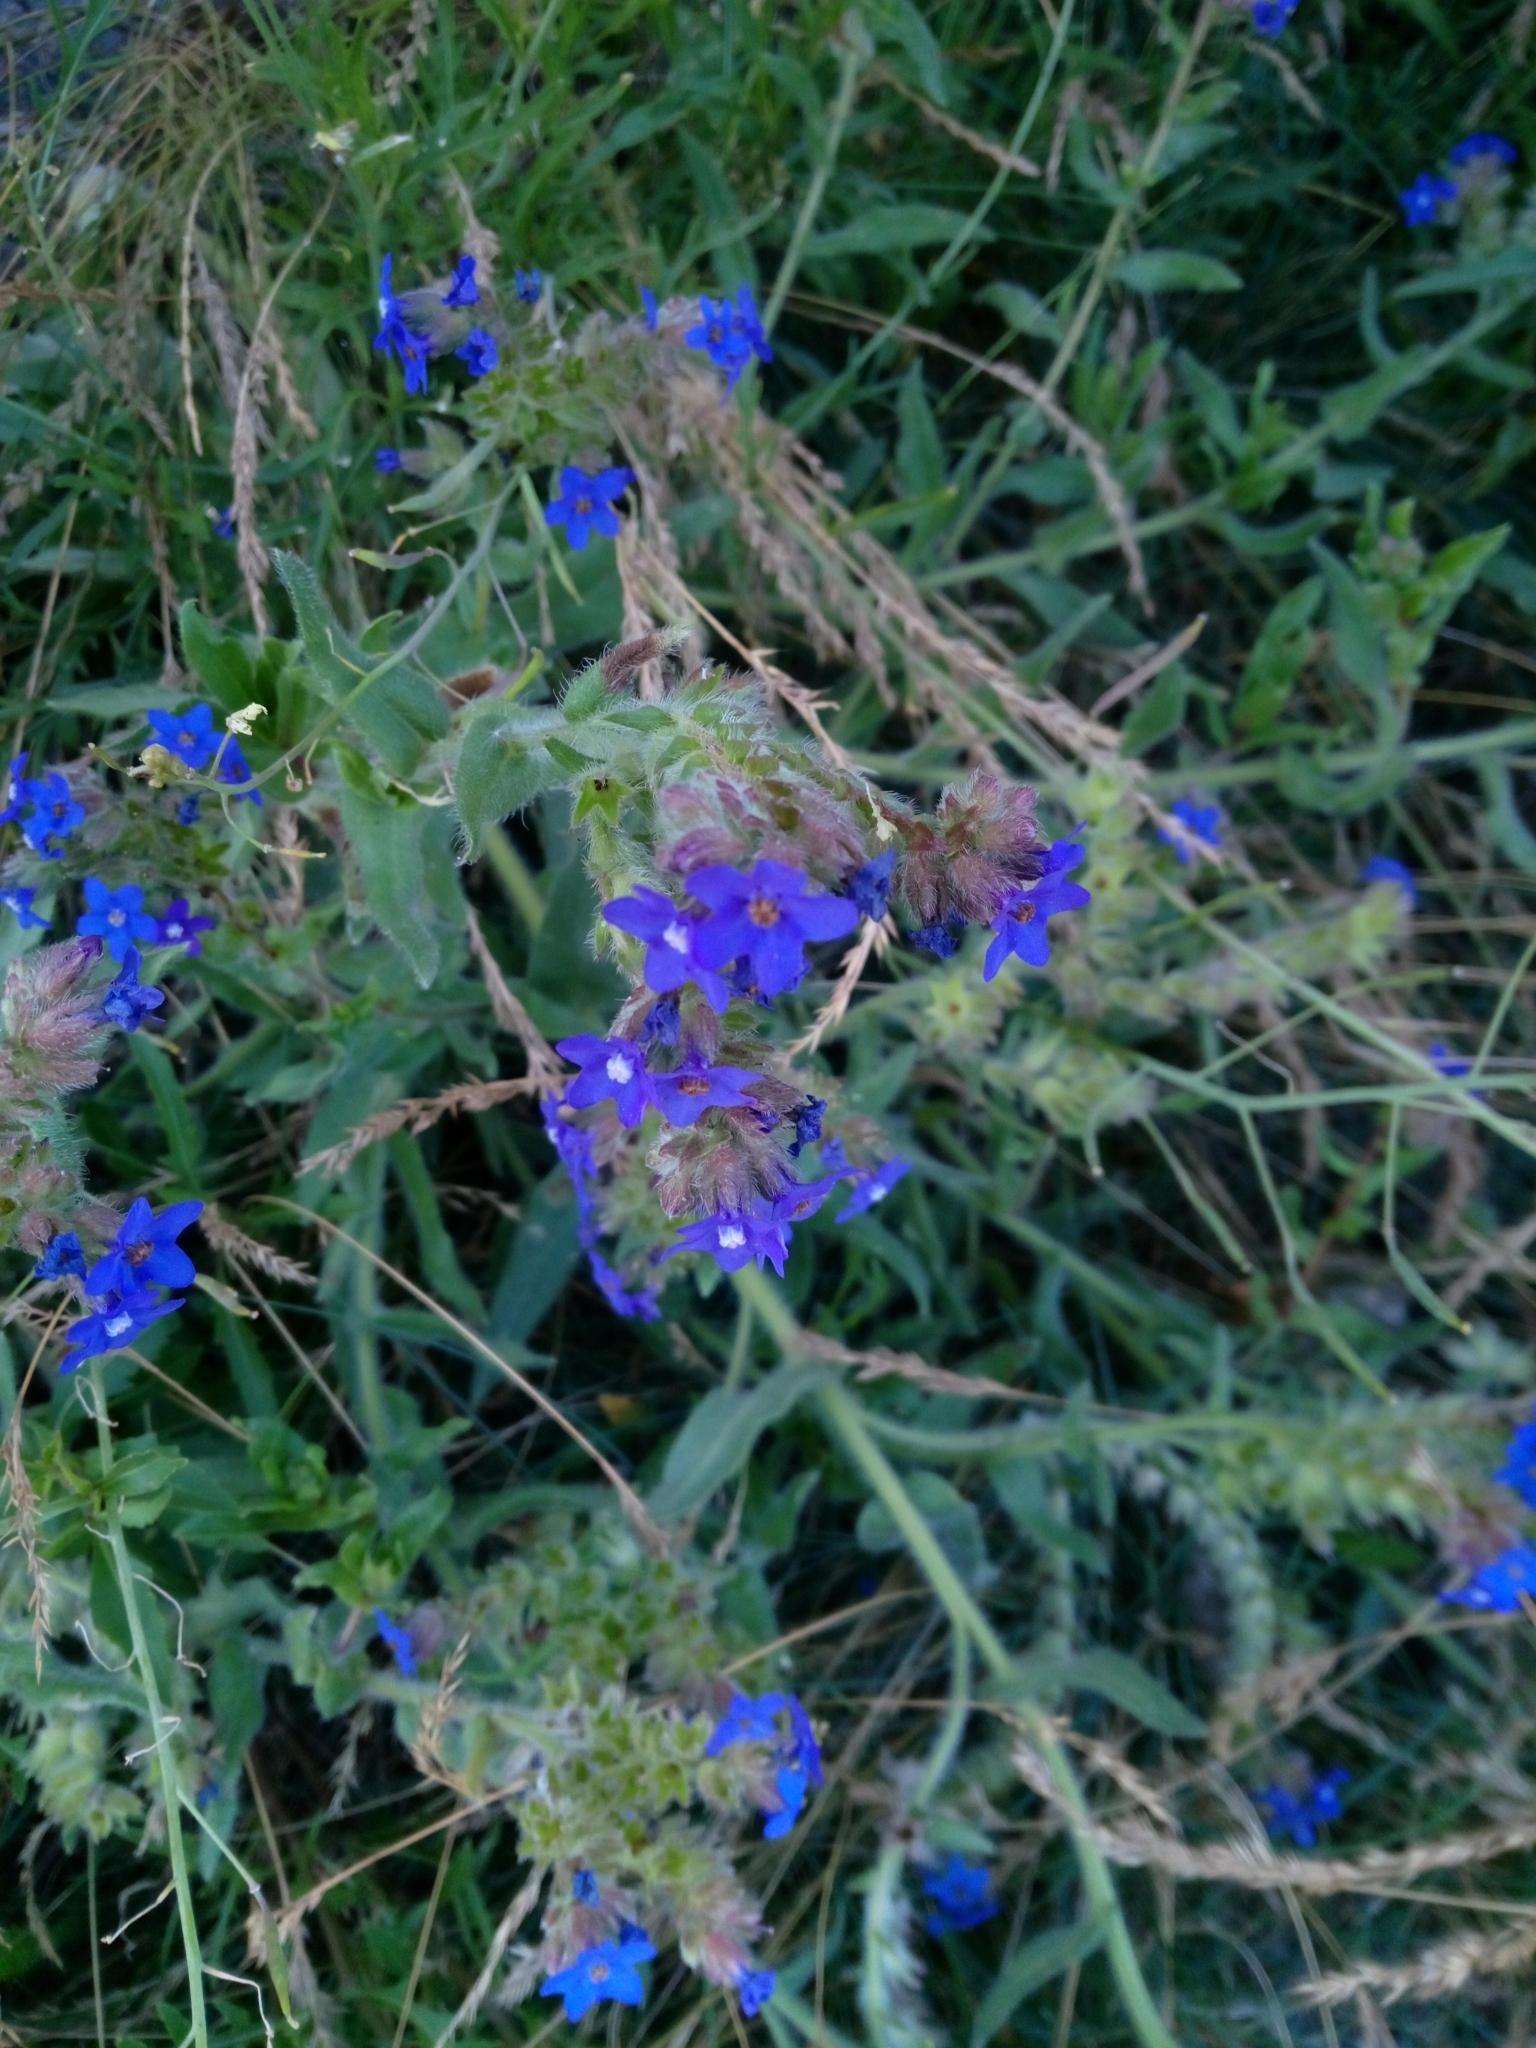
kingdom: Plantae
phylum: Tracheophyta
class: Magnoliopsida
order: Boraginales
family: Boraginaceae
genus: Anchusa
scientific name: Anchusa officinalis
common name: Alkanet
